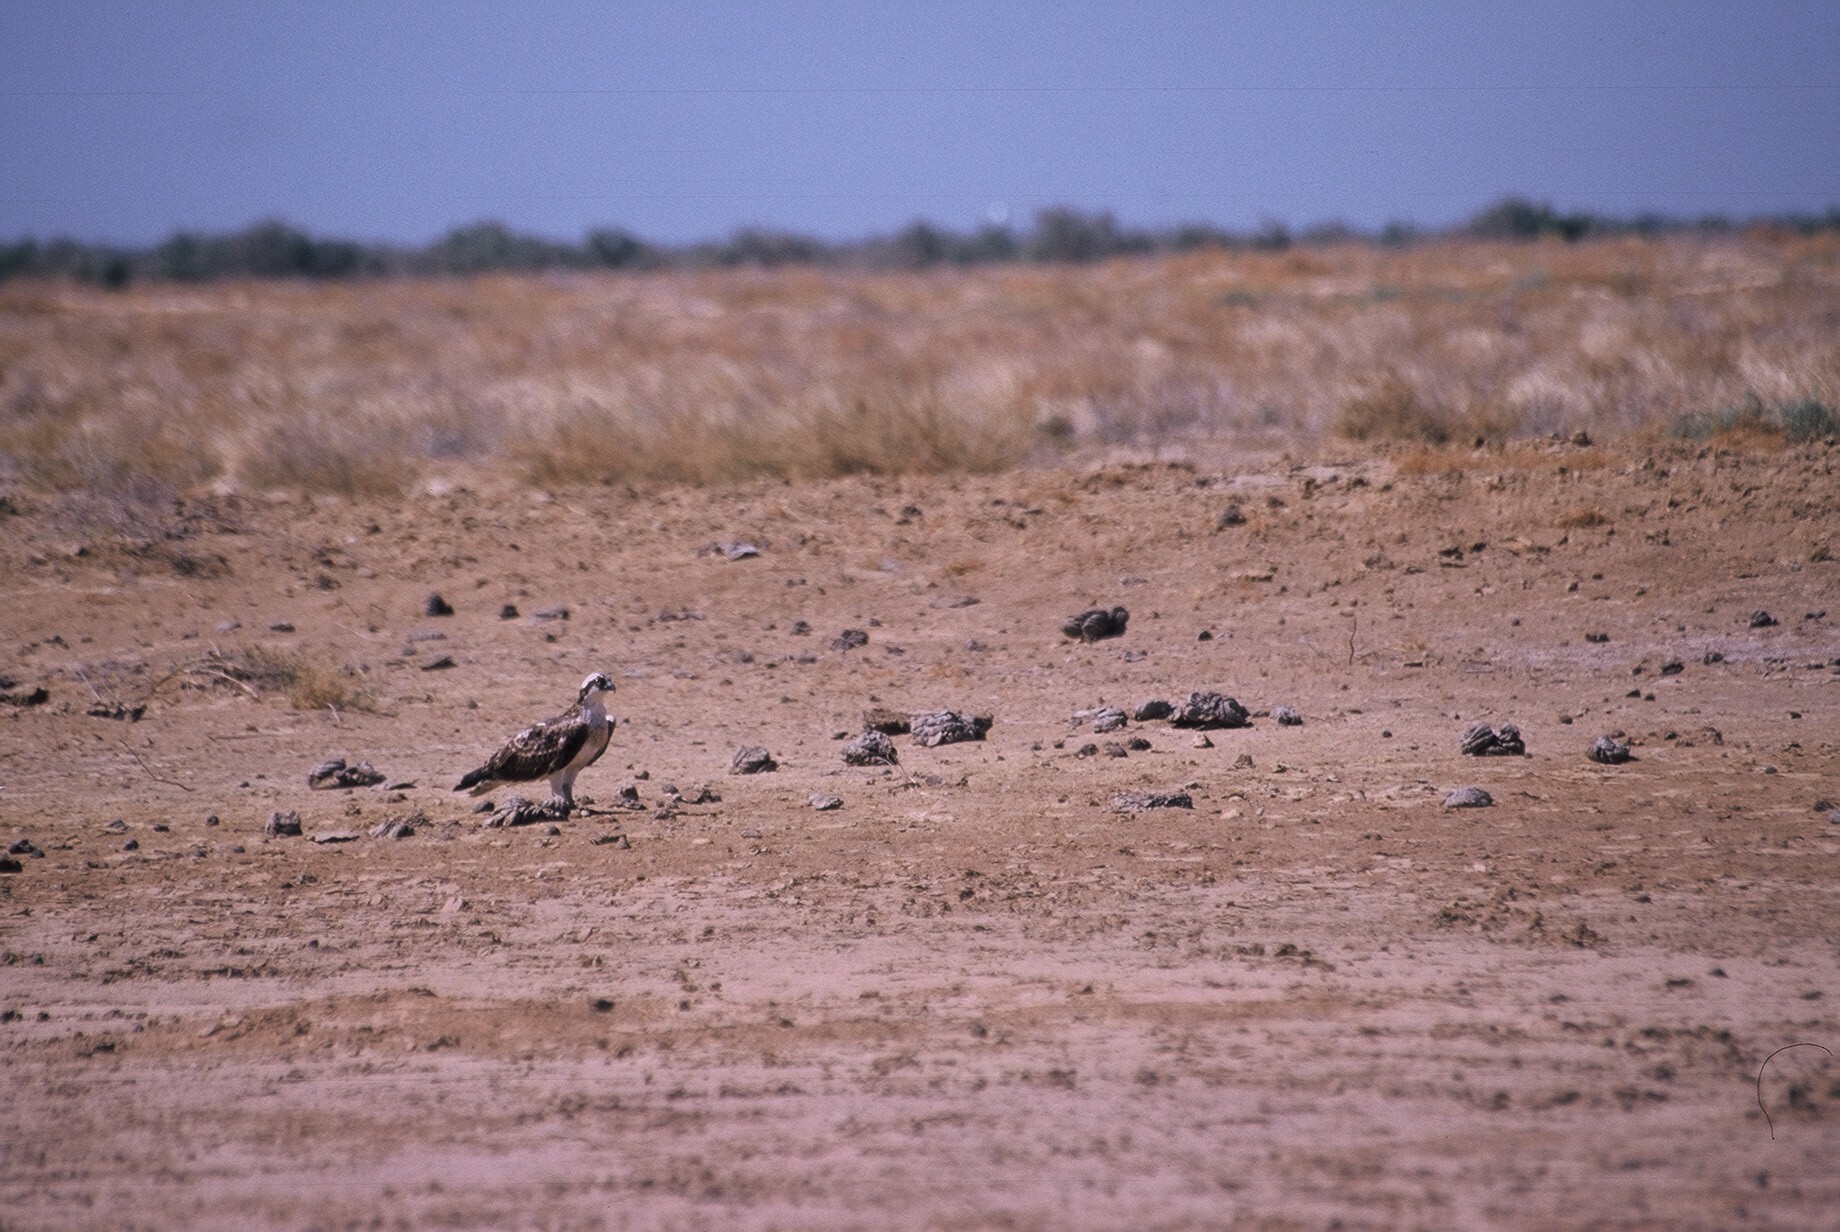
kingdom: Animalia
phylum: Chordata
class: Aves
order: Accipitriformes
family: Pandionidae
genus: Pandion
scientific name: Pandion haliaetus
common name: Osprey
